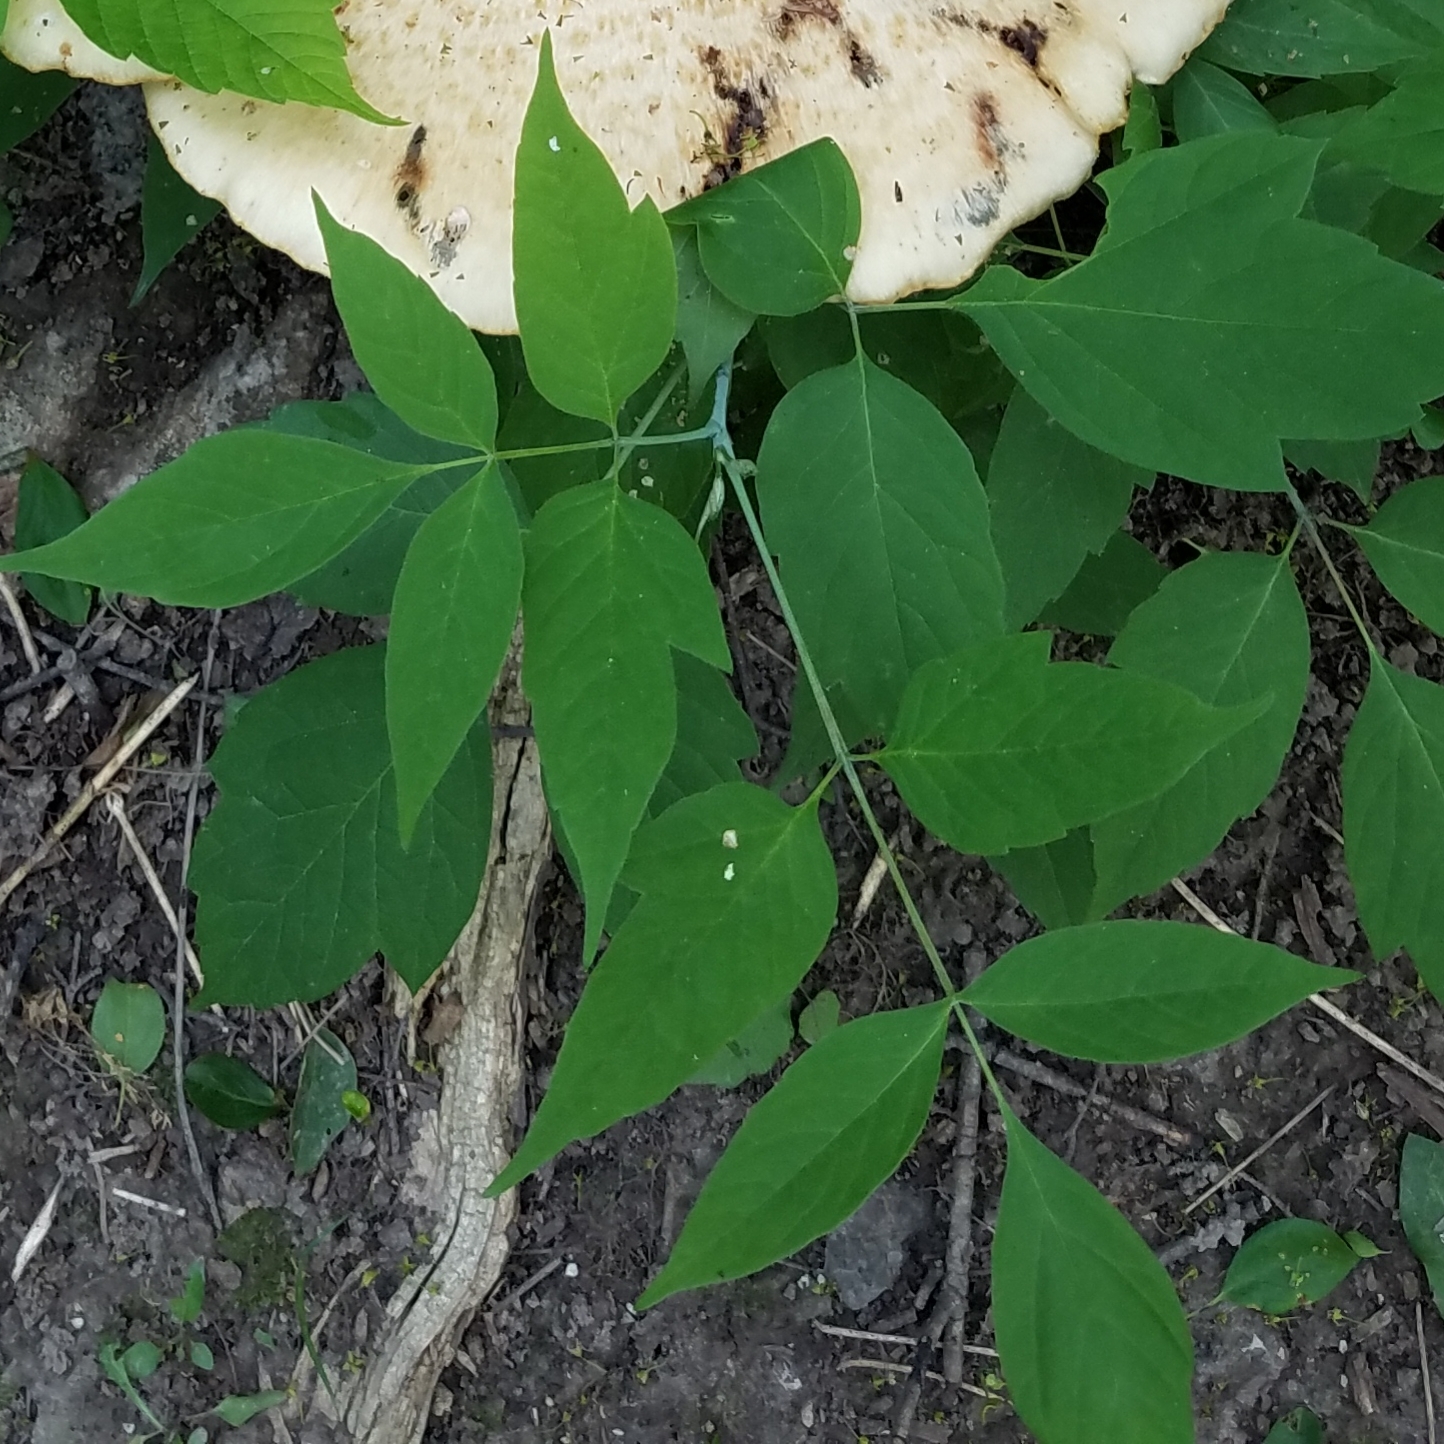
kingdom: Plantae
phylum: Tracheophyta
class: Magnoliopsida
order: Sapindales
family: Sapindaceae
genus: Acer
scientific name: Acer negundo
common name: Ashleaf maple
